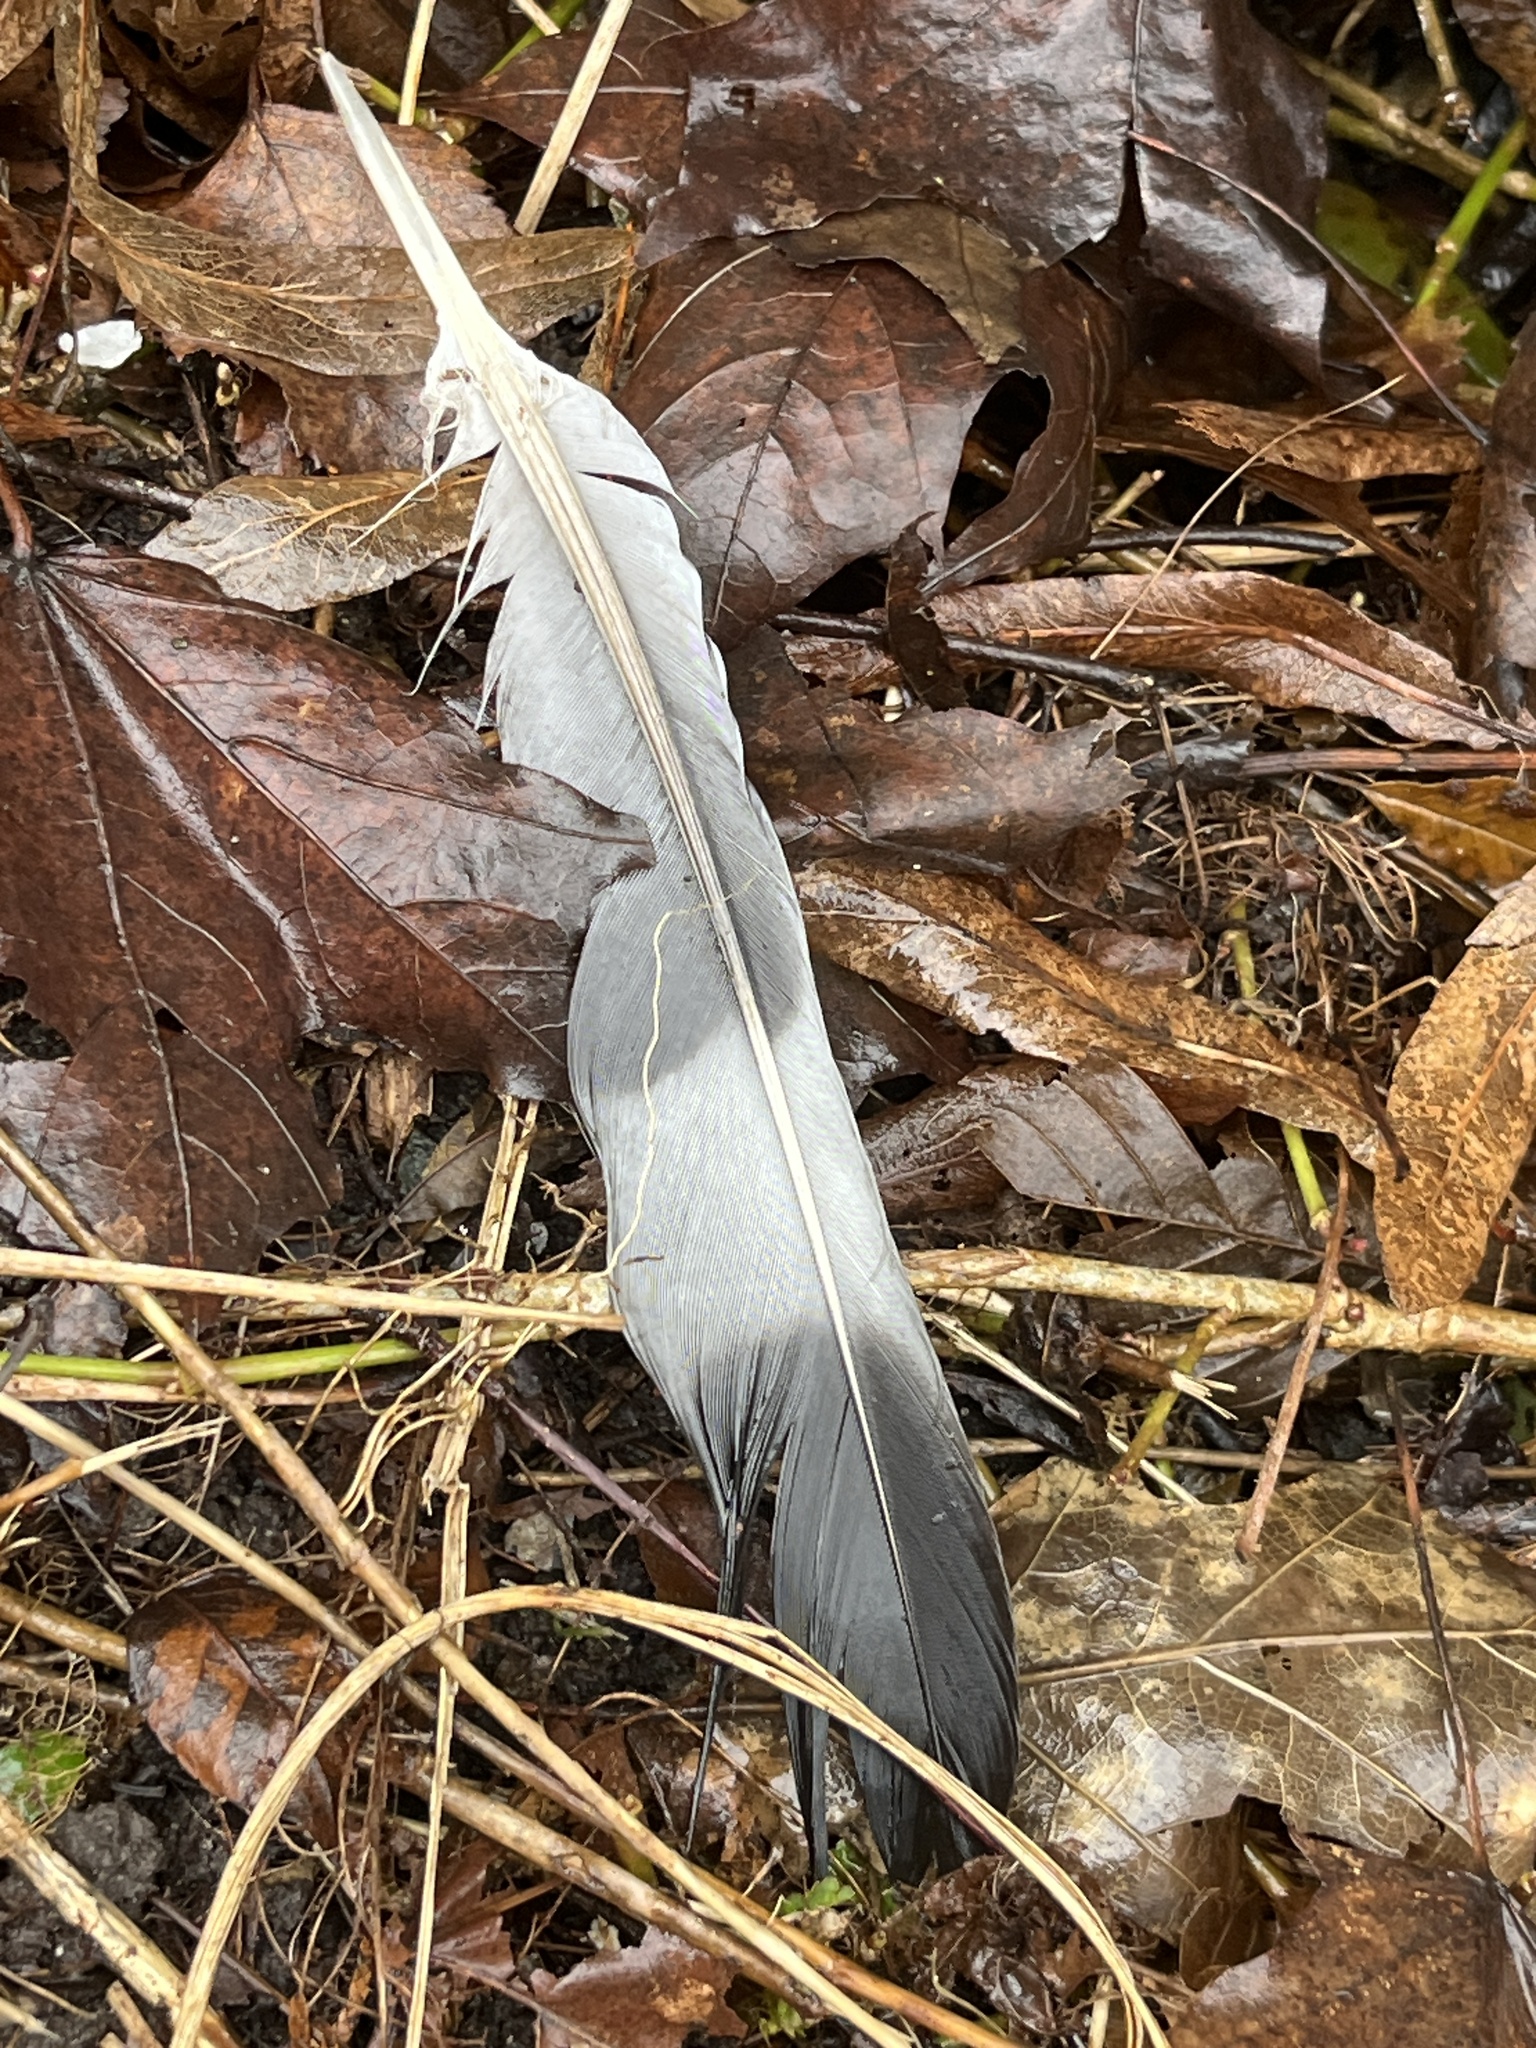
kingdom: Animalia
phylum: Chordata
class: Aves
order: Columbiformes
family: Columbidae
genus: Columba
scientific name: Columba palumbus
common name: Common wood pigeon
